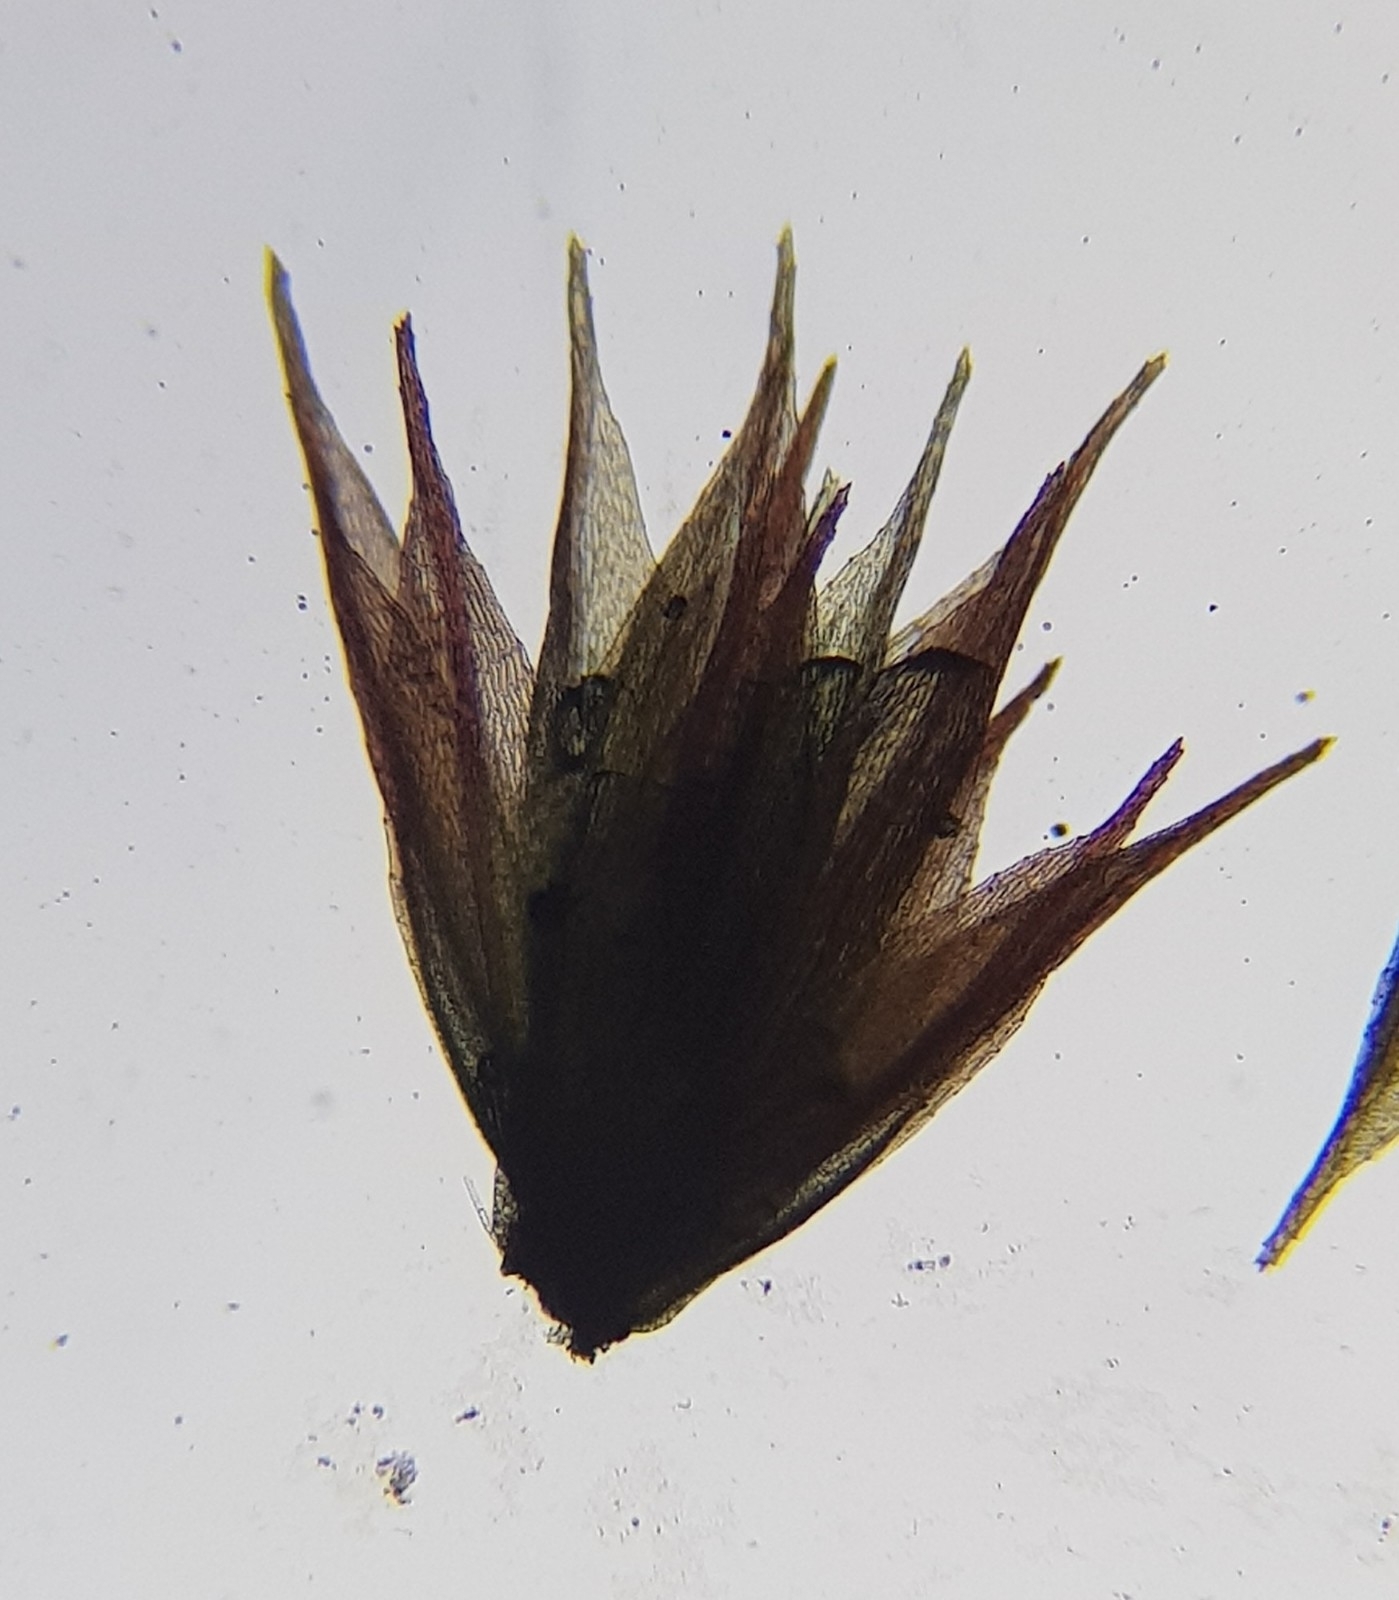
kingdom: Plantae
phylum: Bryophyta
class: Bryopsida
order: Bryales
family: Bryaceae
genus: Ptychostomum
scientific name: Ptychostomum pallens
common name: Pale thread-moss
